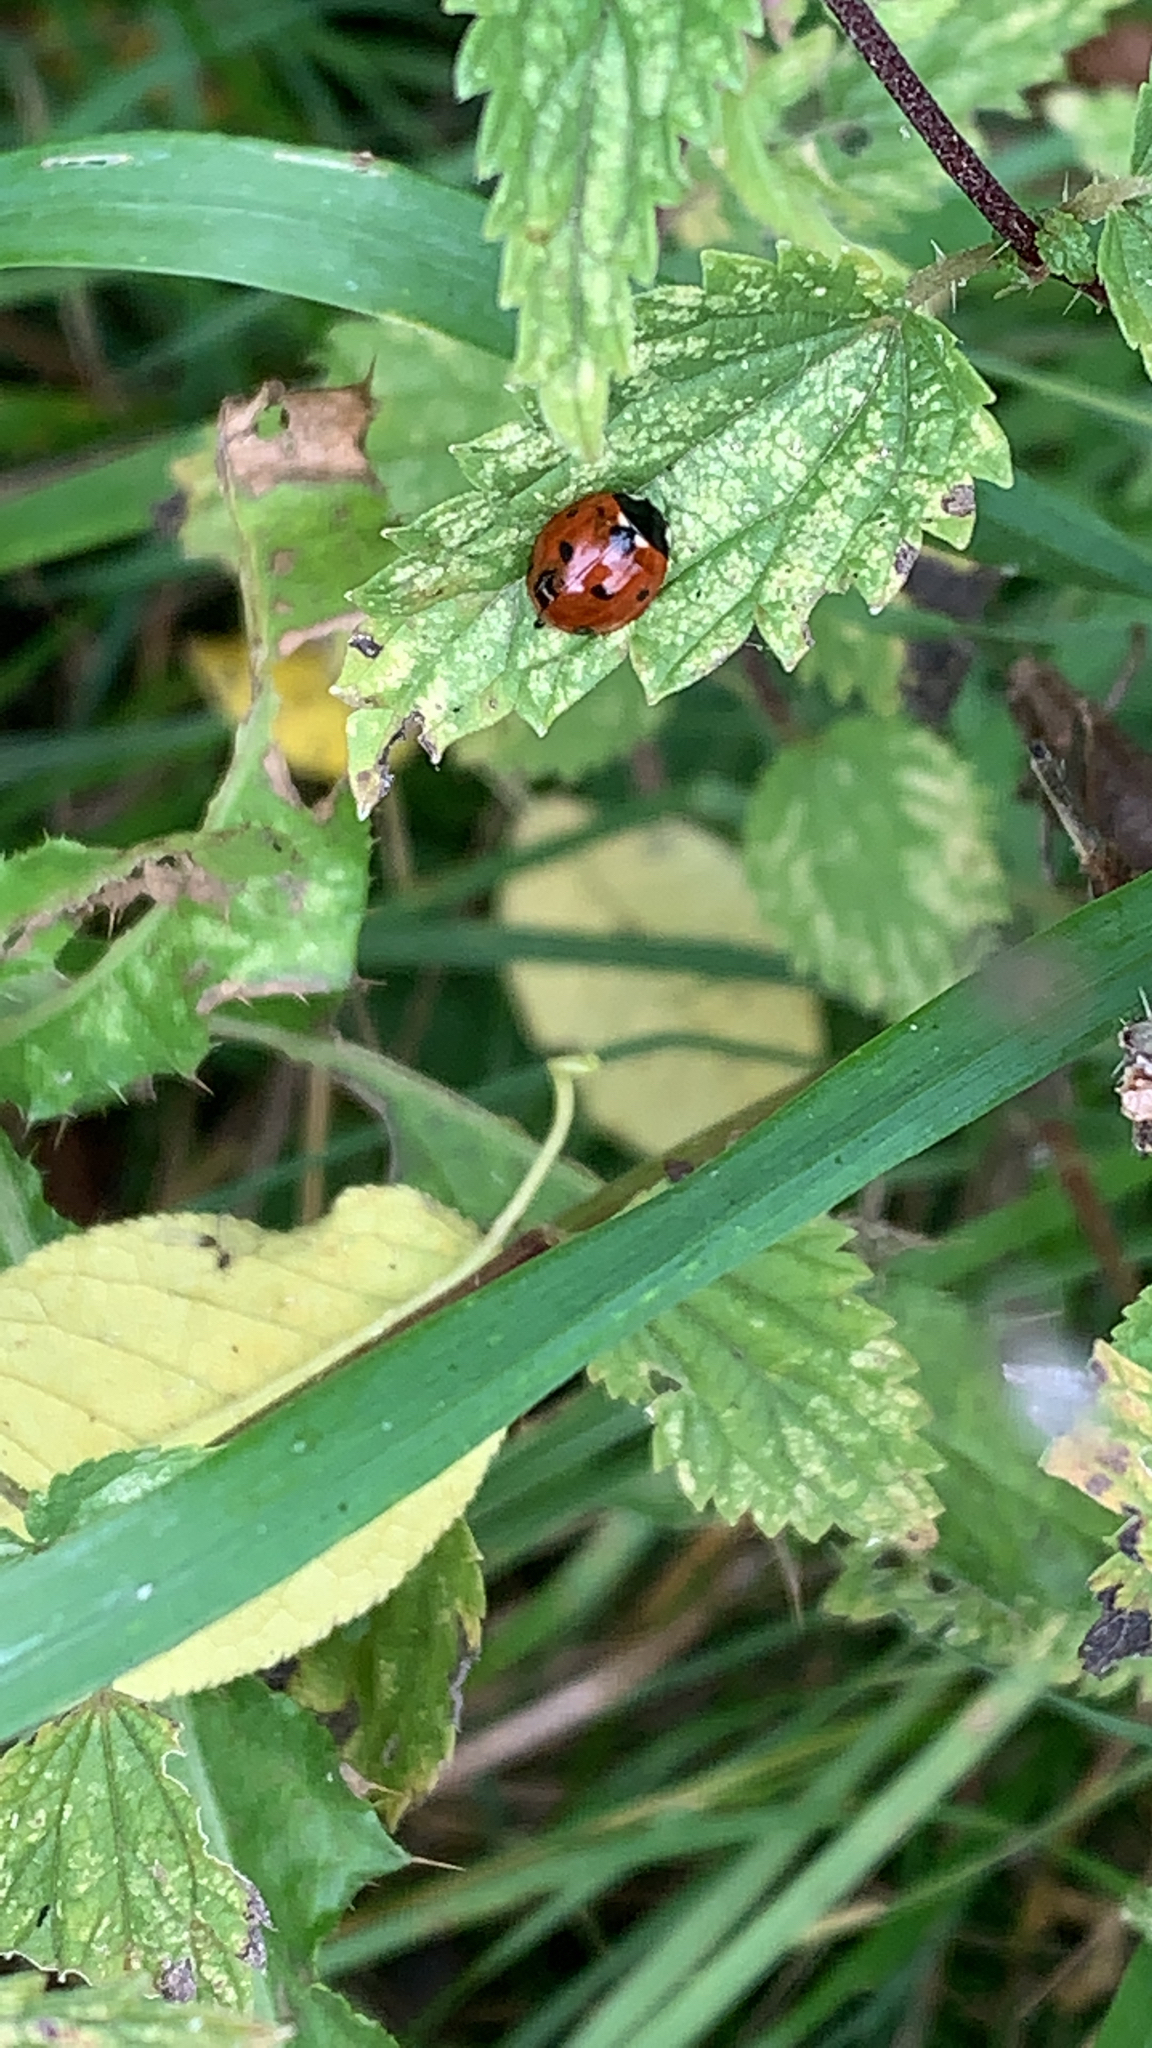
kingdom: Animalia
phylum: Arthropoda
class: Insecta
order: Coleoptera
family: Coccinellidae
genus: Coccinella
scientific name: Coccinella septempunctata
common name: Sevenspotted lady beetle
